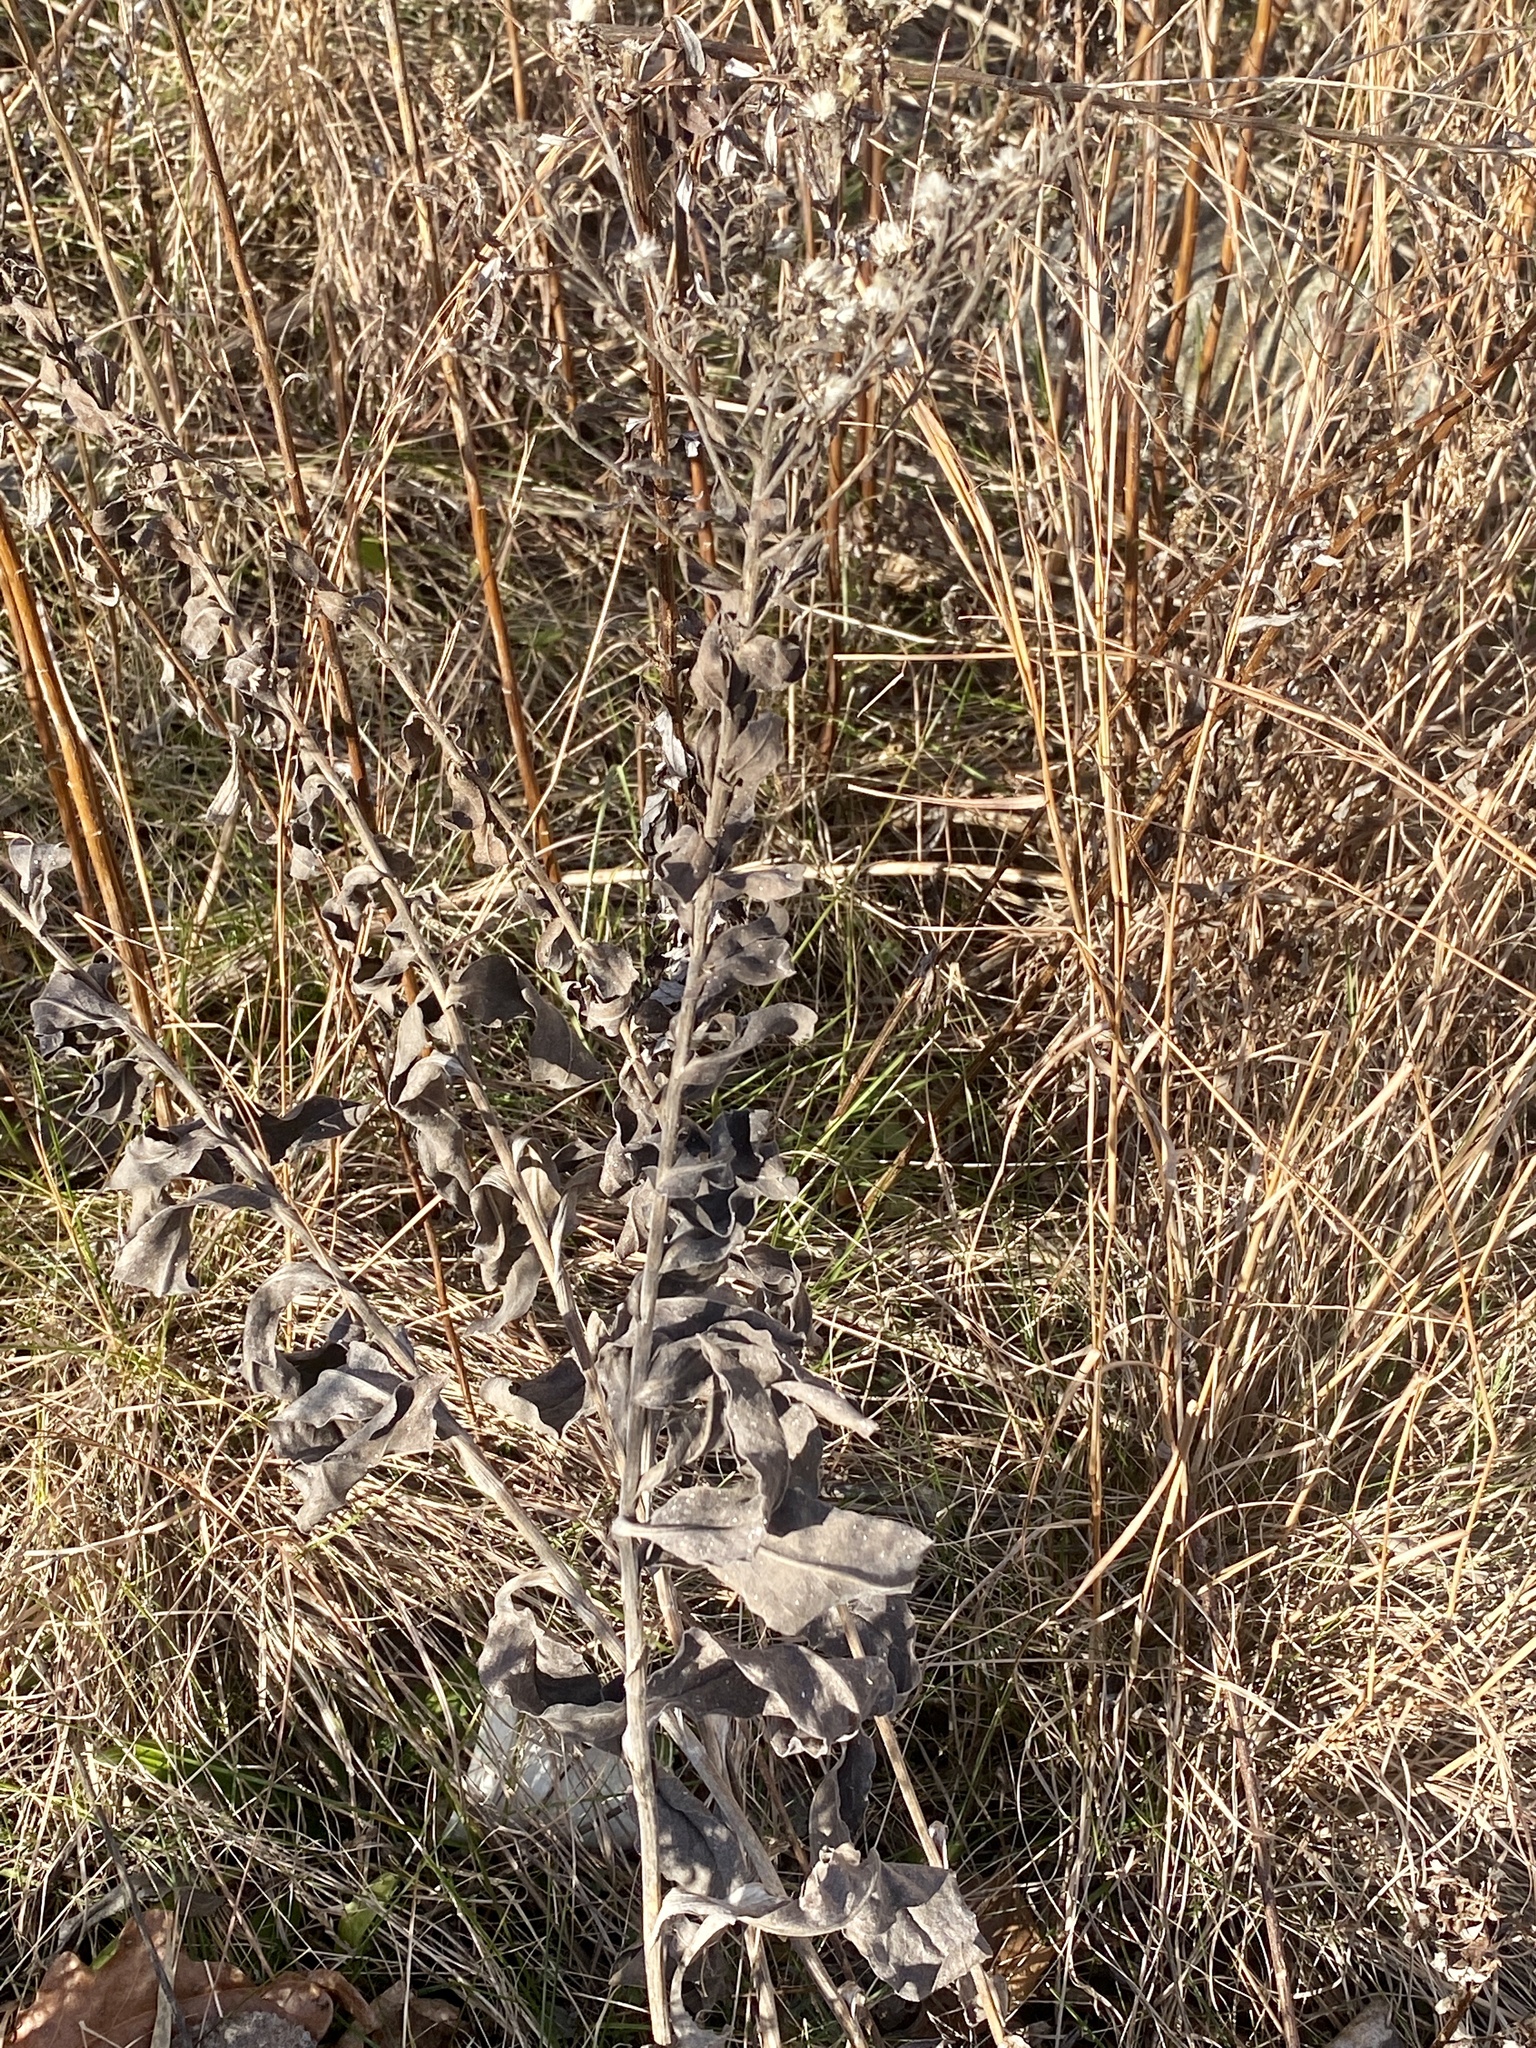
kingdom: Plantae
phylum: Tracheophyta
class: Magnoliopsida
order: Asterales
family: Asteraceae
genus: Solidago
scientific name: Solidago rigida
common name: Rigid goldenrod
